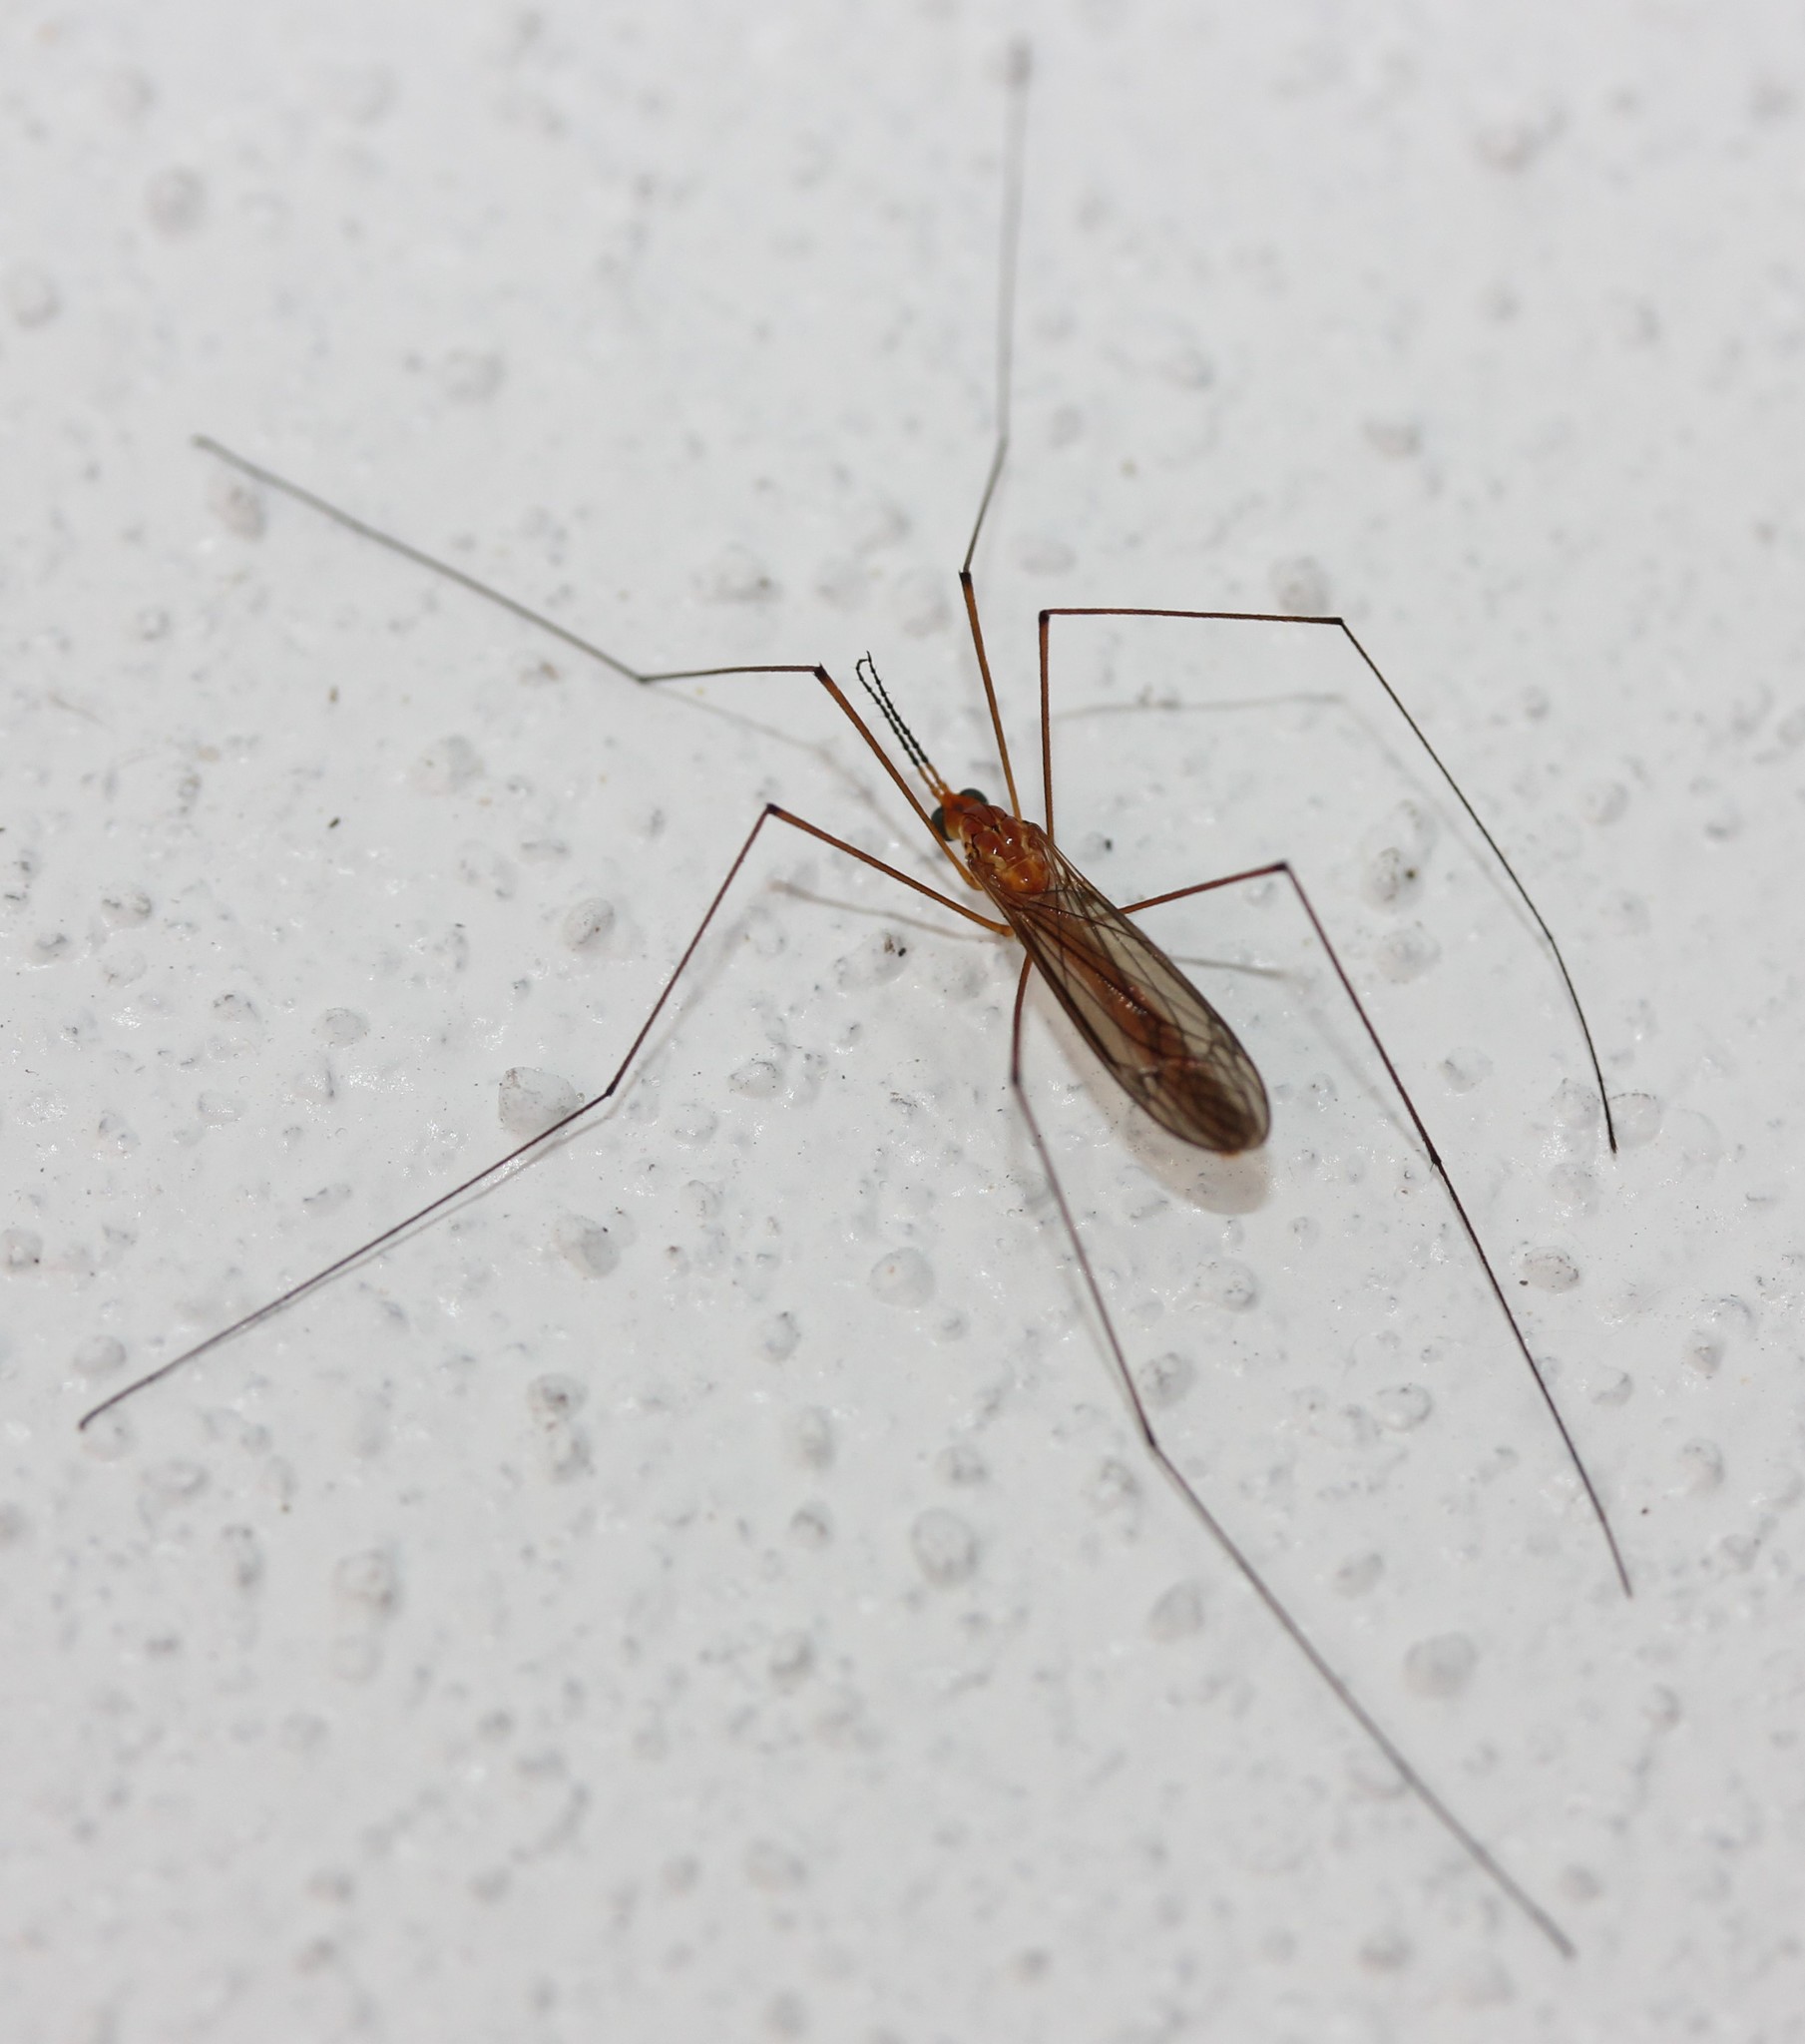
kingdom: Animalia
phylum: Arthropoda
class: Insecta
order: Diptera
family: Tipulidae
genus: Nephrotoma
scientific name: Nephrotoma
